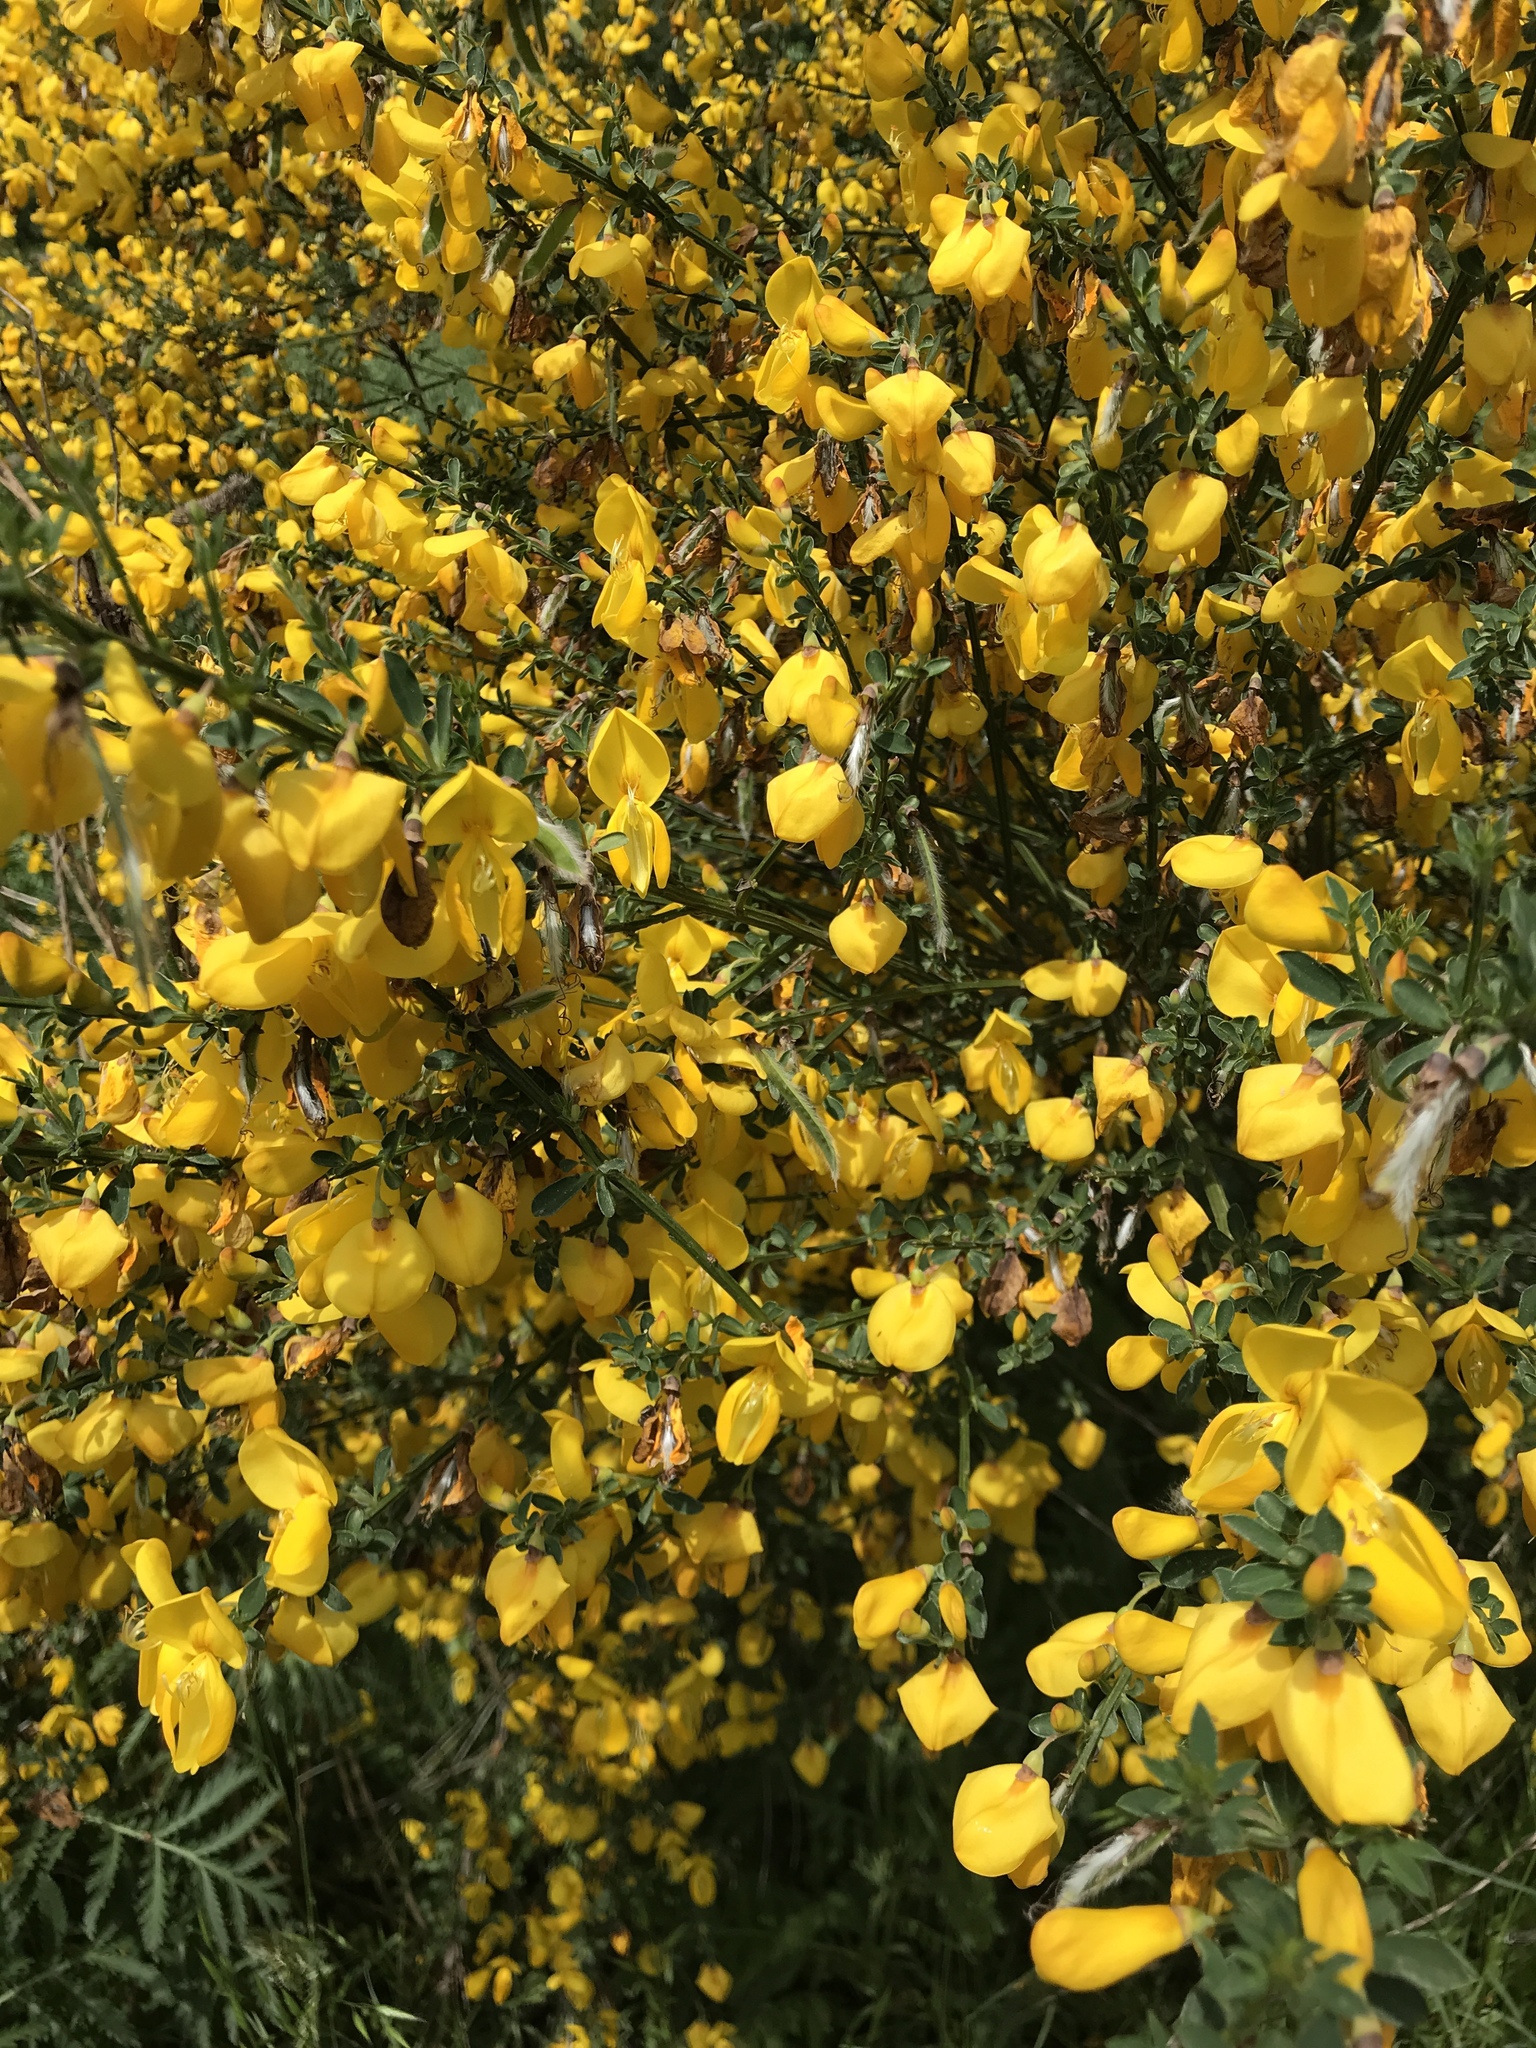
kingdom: Plantae
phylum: Tracheophyta
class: Magnoliopsida
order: Fabales
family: Fabaceae
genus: Cytisus
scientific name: Cytisus scoparius
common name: Scotch broom
